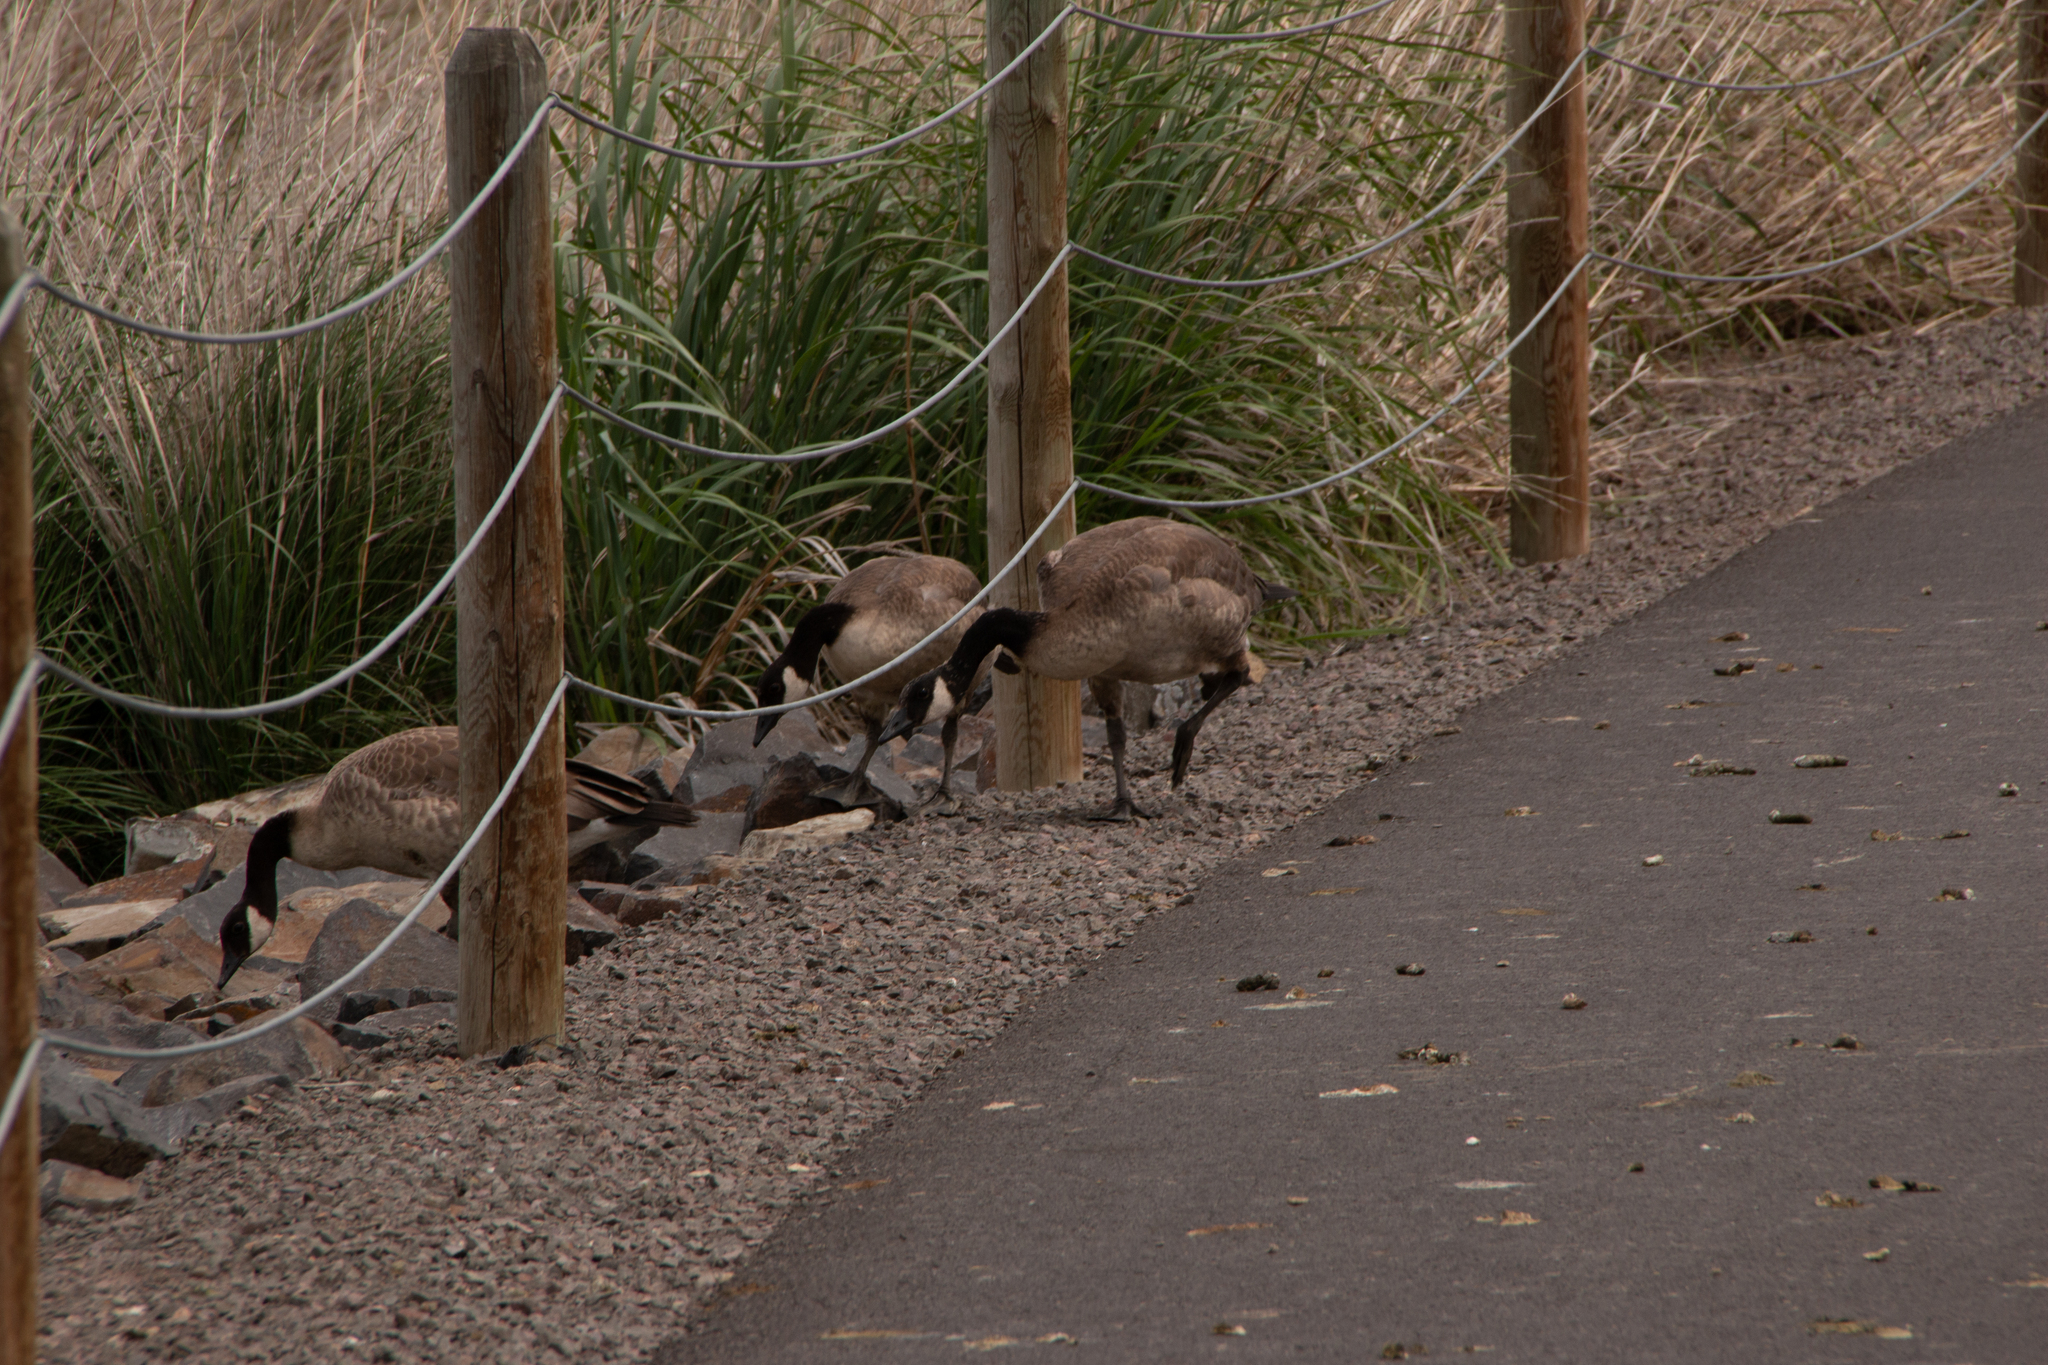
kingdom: Animalia
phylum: Chordata
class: Aves
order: Anseriformes
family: Anatidae
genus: Branta
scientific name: Branta canadensis
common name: Canada goose
